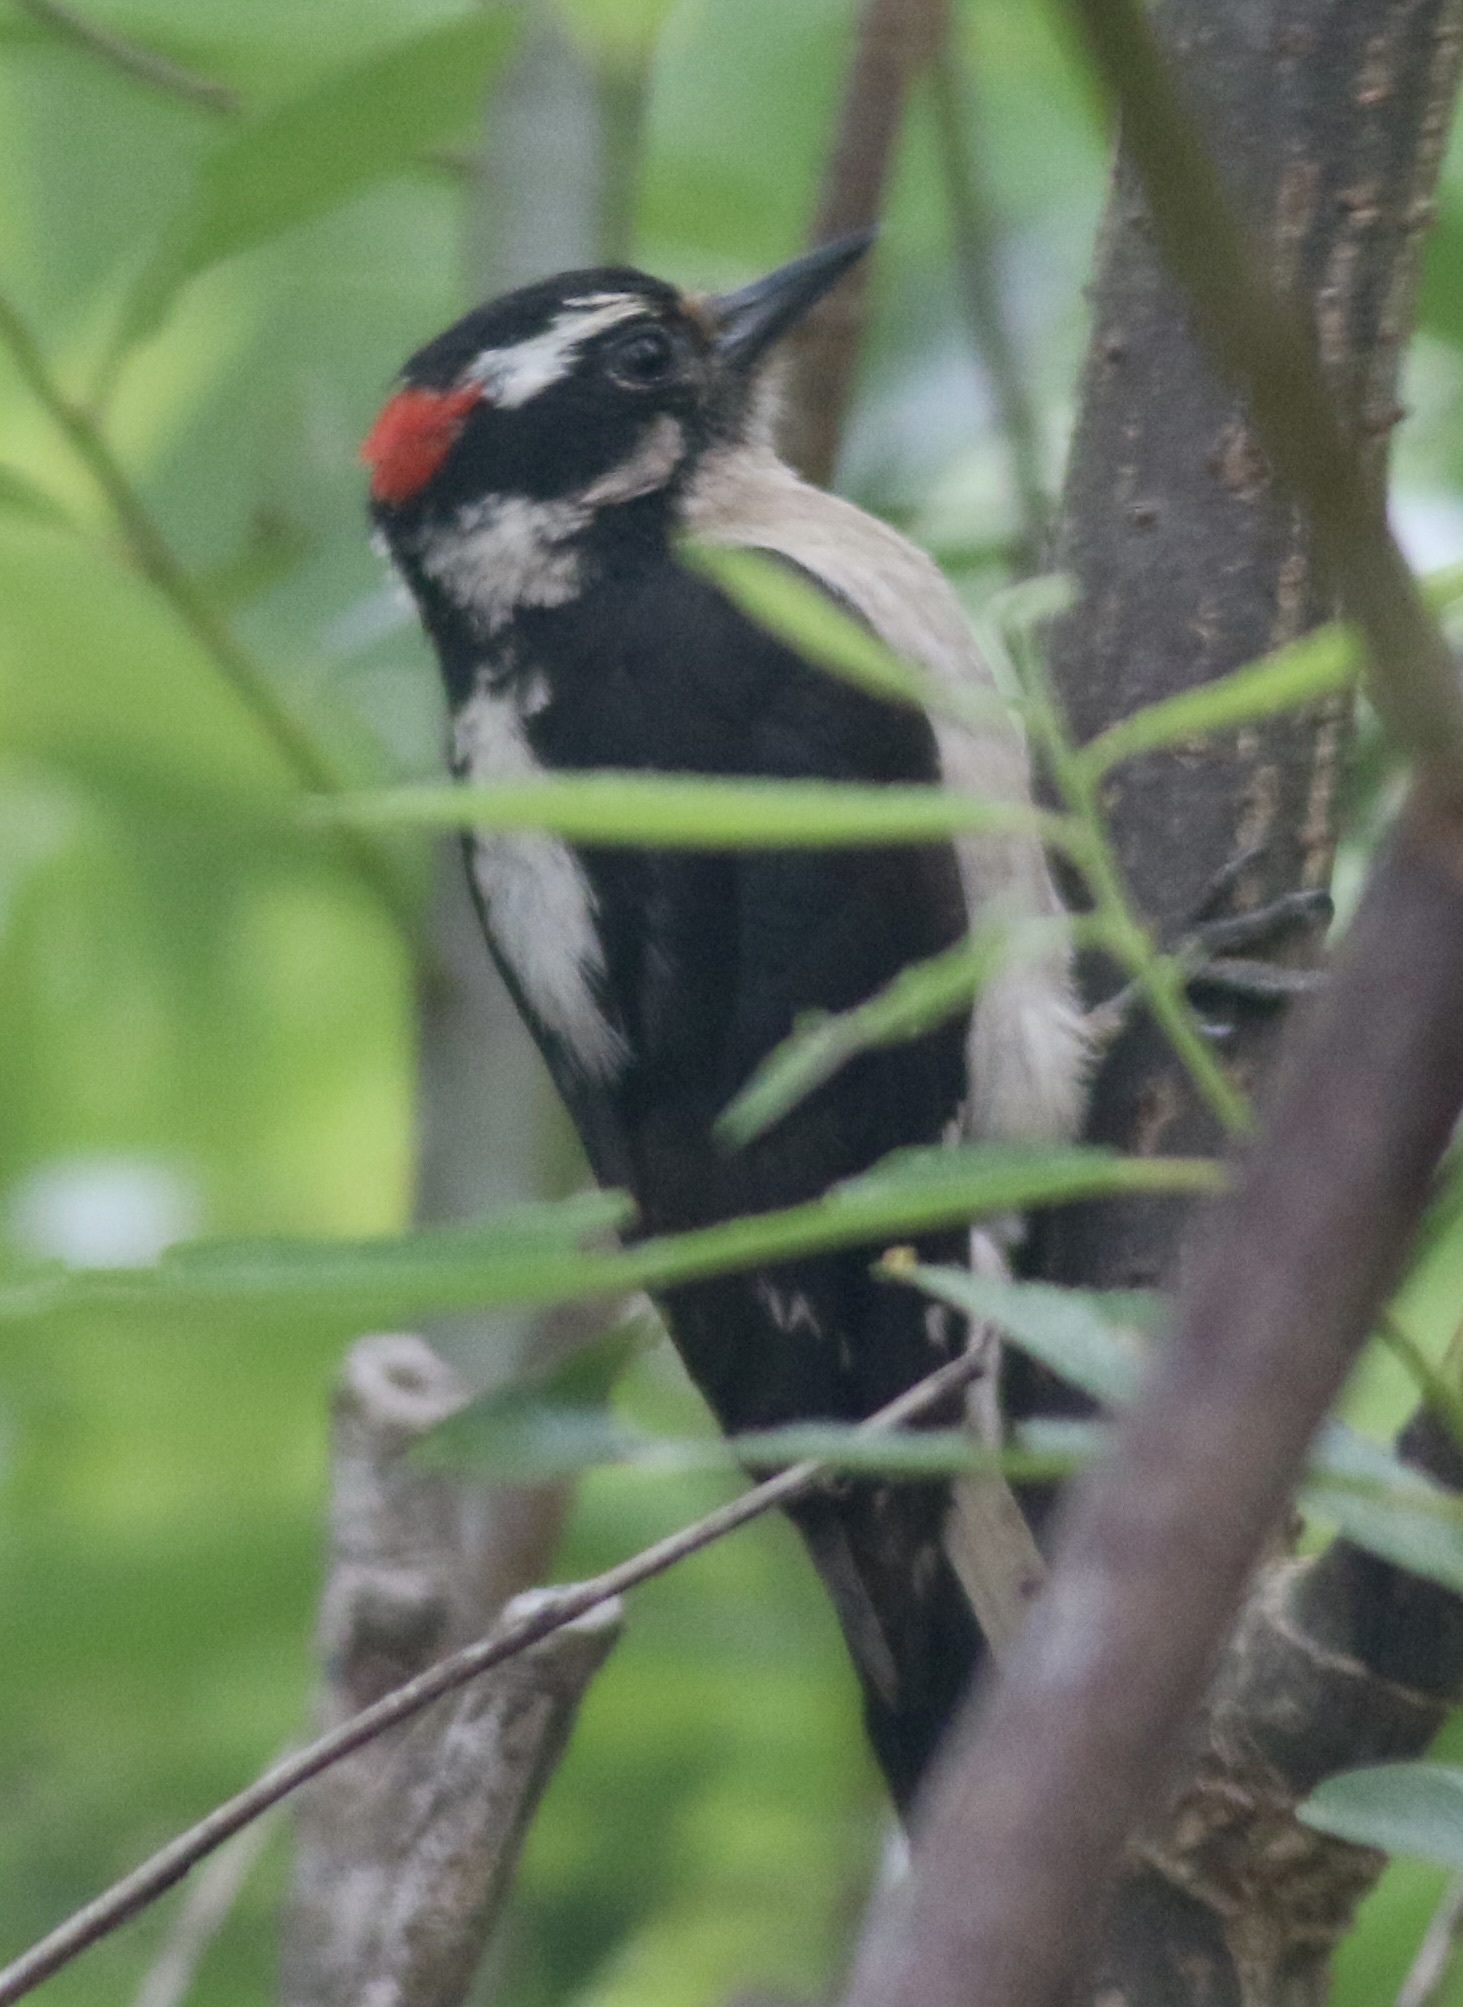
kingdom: Animalia
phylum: Chordata
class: Aves
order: Piciformes
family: Picidae
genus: Dryobates
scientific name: Dryobates pubescens
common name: Downy woodpecker
